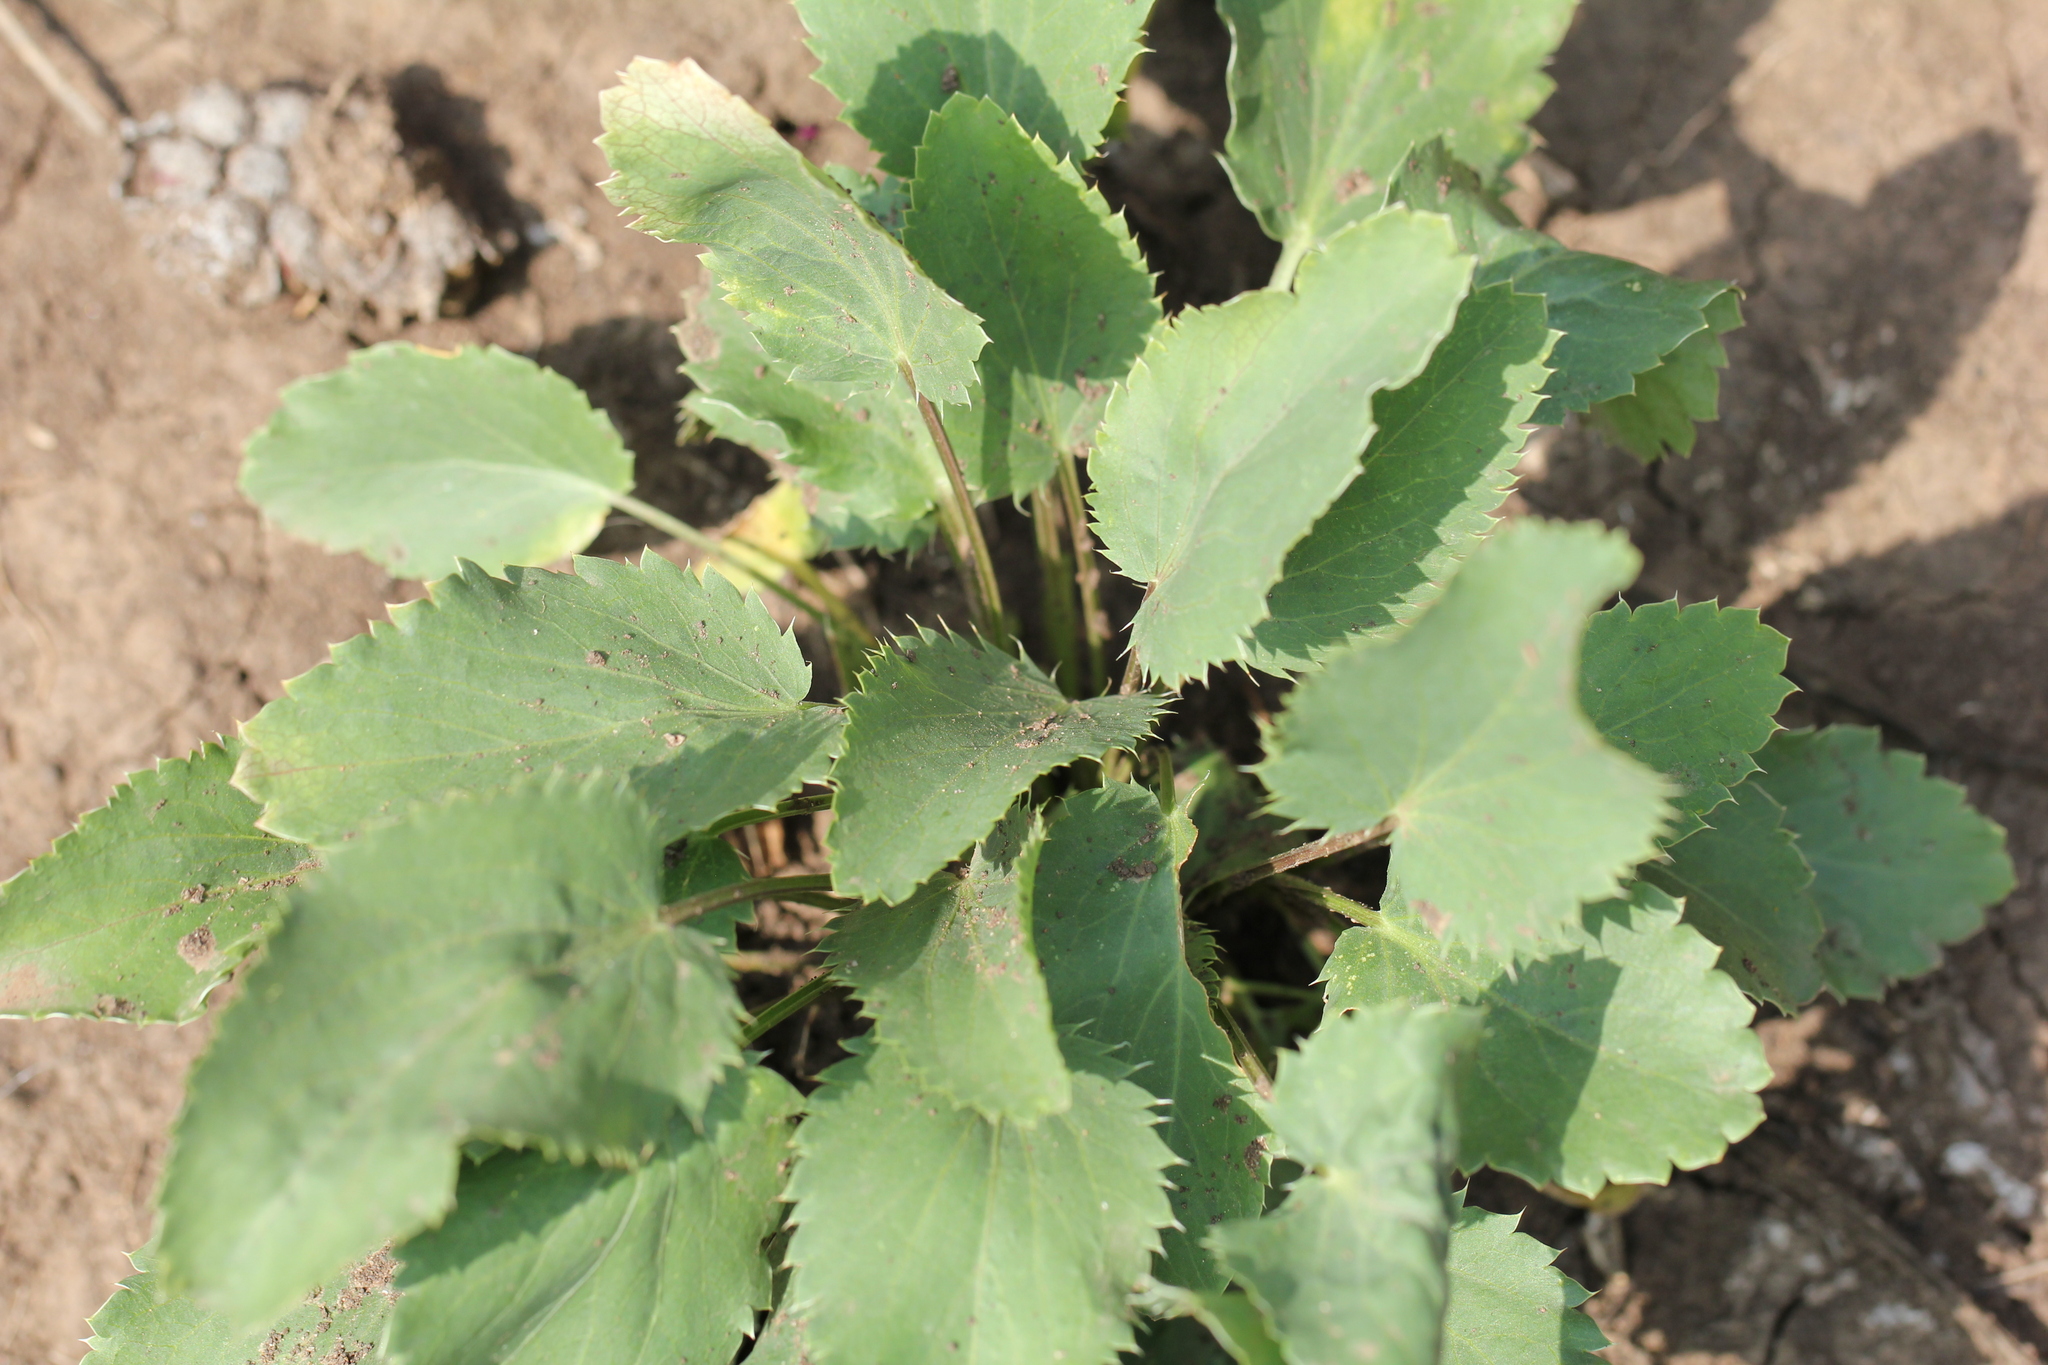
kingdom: Plantae
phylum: Tracheophyta
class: Magnoliopsida
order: Apiales
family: Apiaceae
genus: Eryngium
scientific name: Eryngium planum
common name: Blue eryngo
